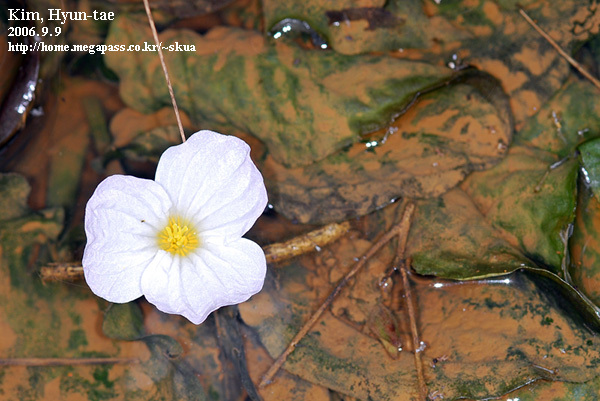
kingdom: Plantae
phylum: Tracheophyta
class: Liliopsida
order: Alismatales
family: Hydrocharitaceae
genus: Ottelia
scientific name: Ottelia alismoides
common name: Duck-lettuce
